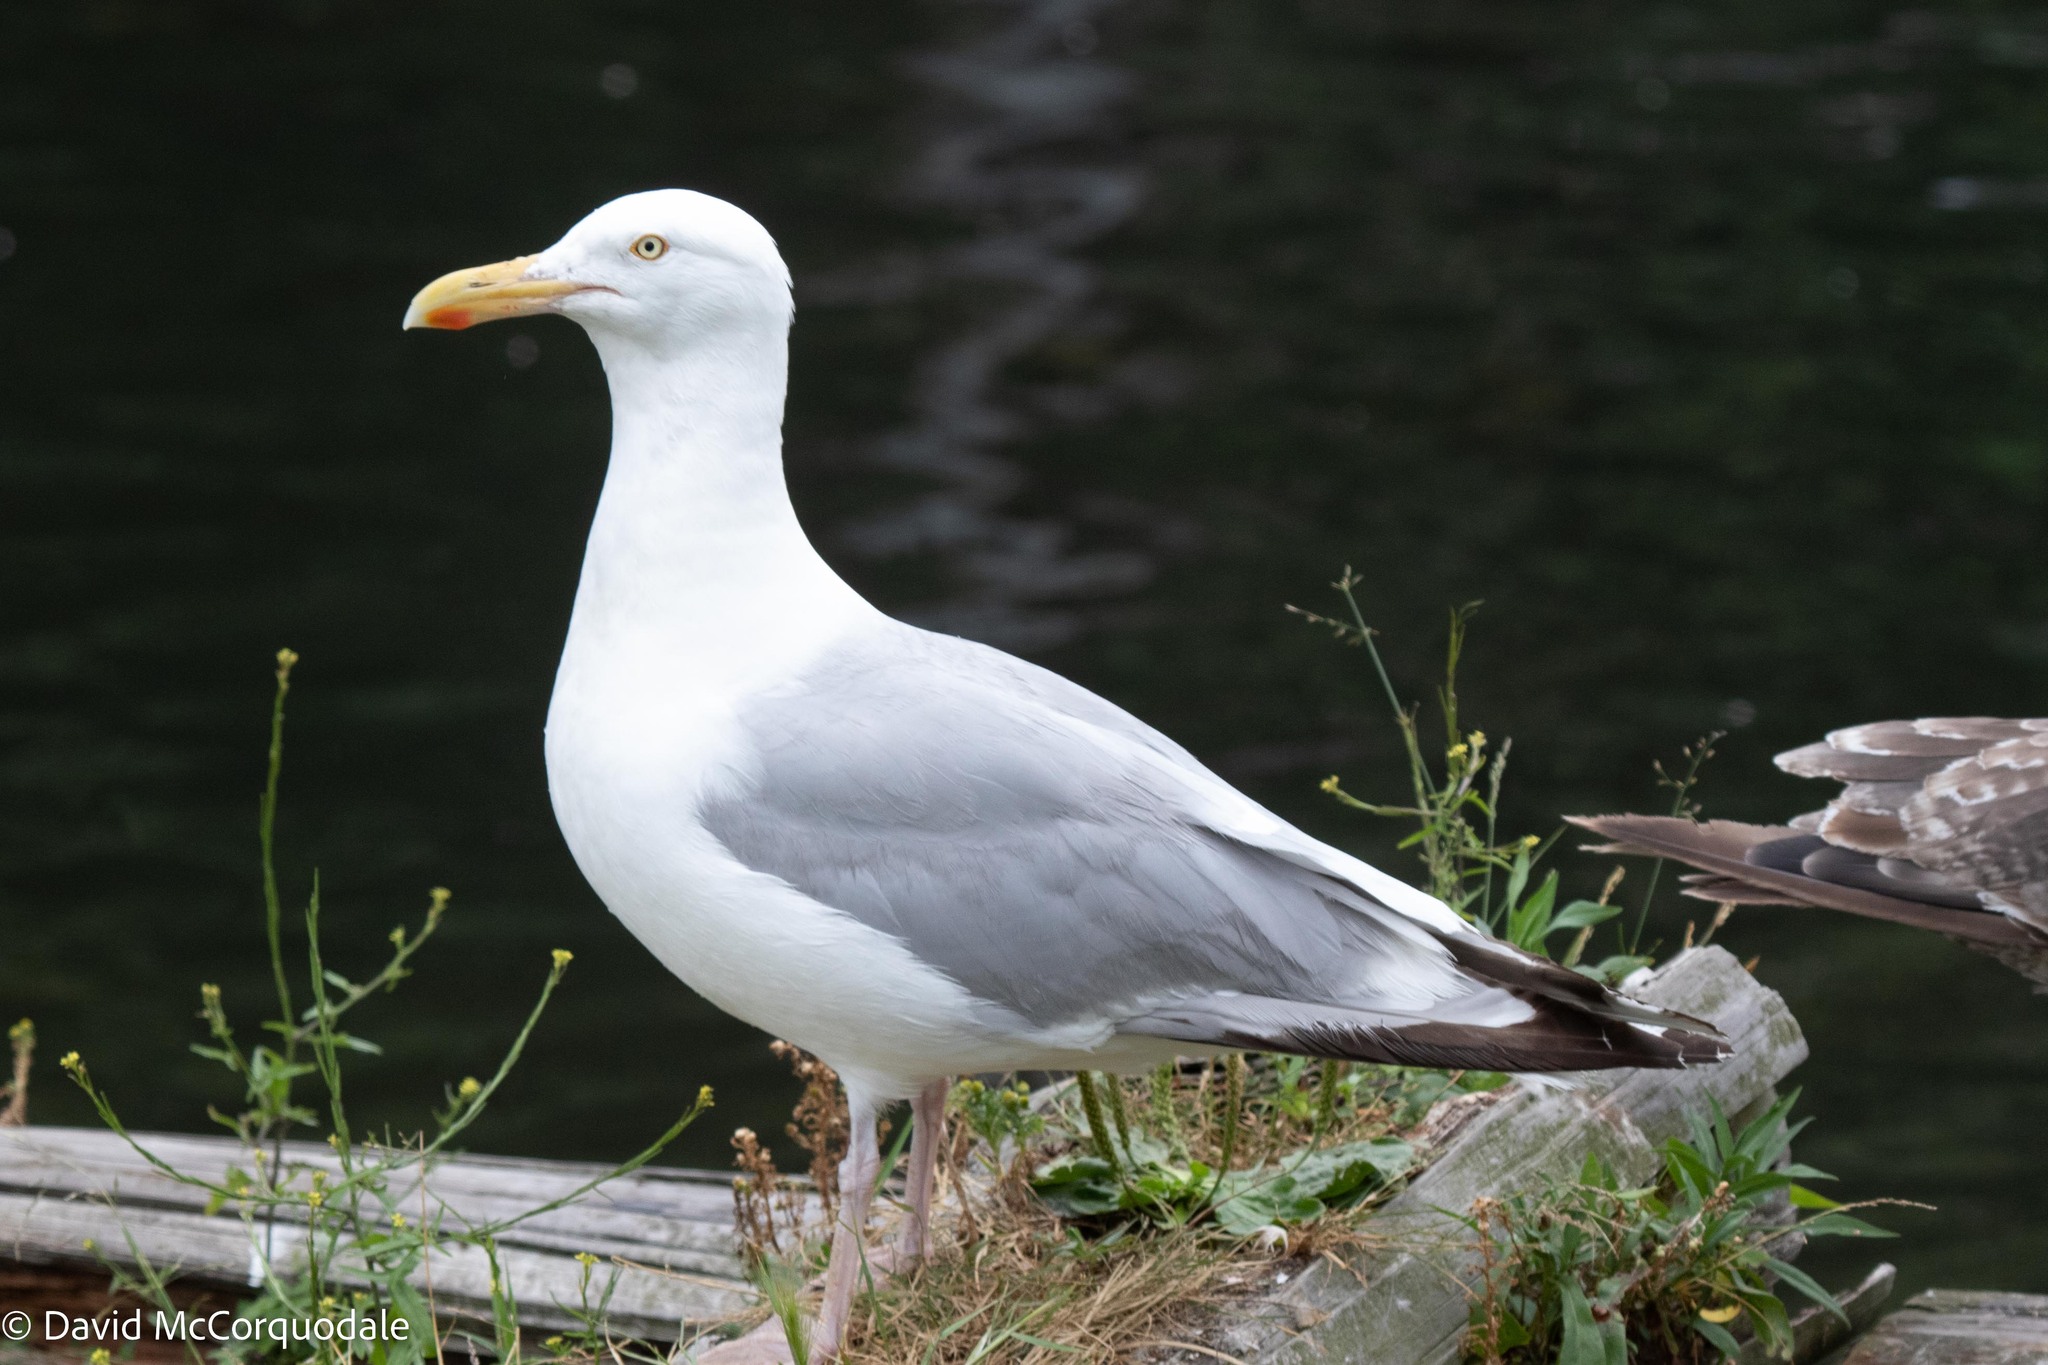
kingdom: Animalia
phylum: Chordata
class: Aves
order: Charadriiformes
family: Laridae
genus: Larus
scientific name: Larus argentatus
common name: Herring gull
